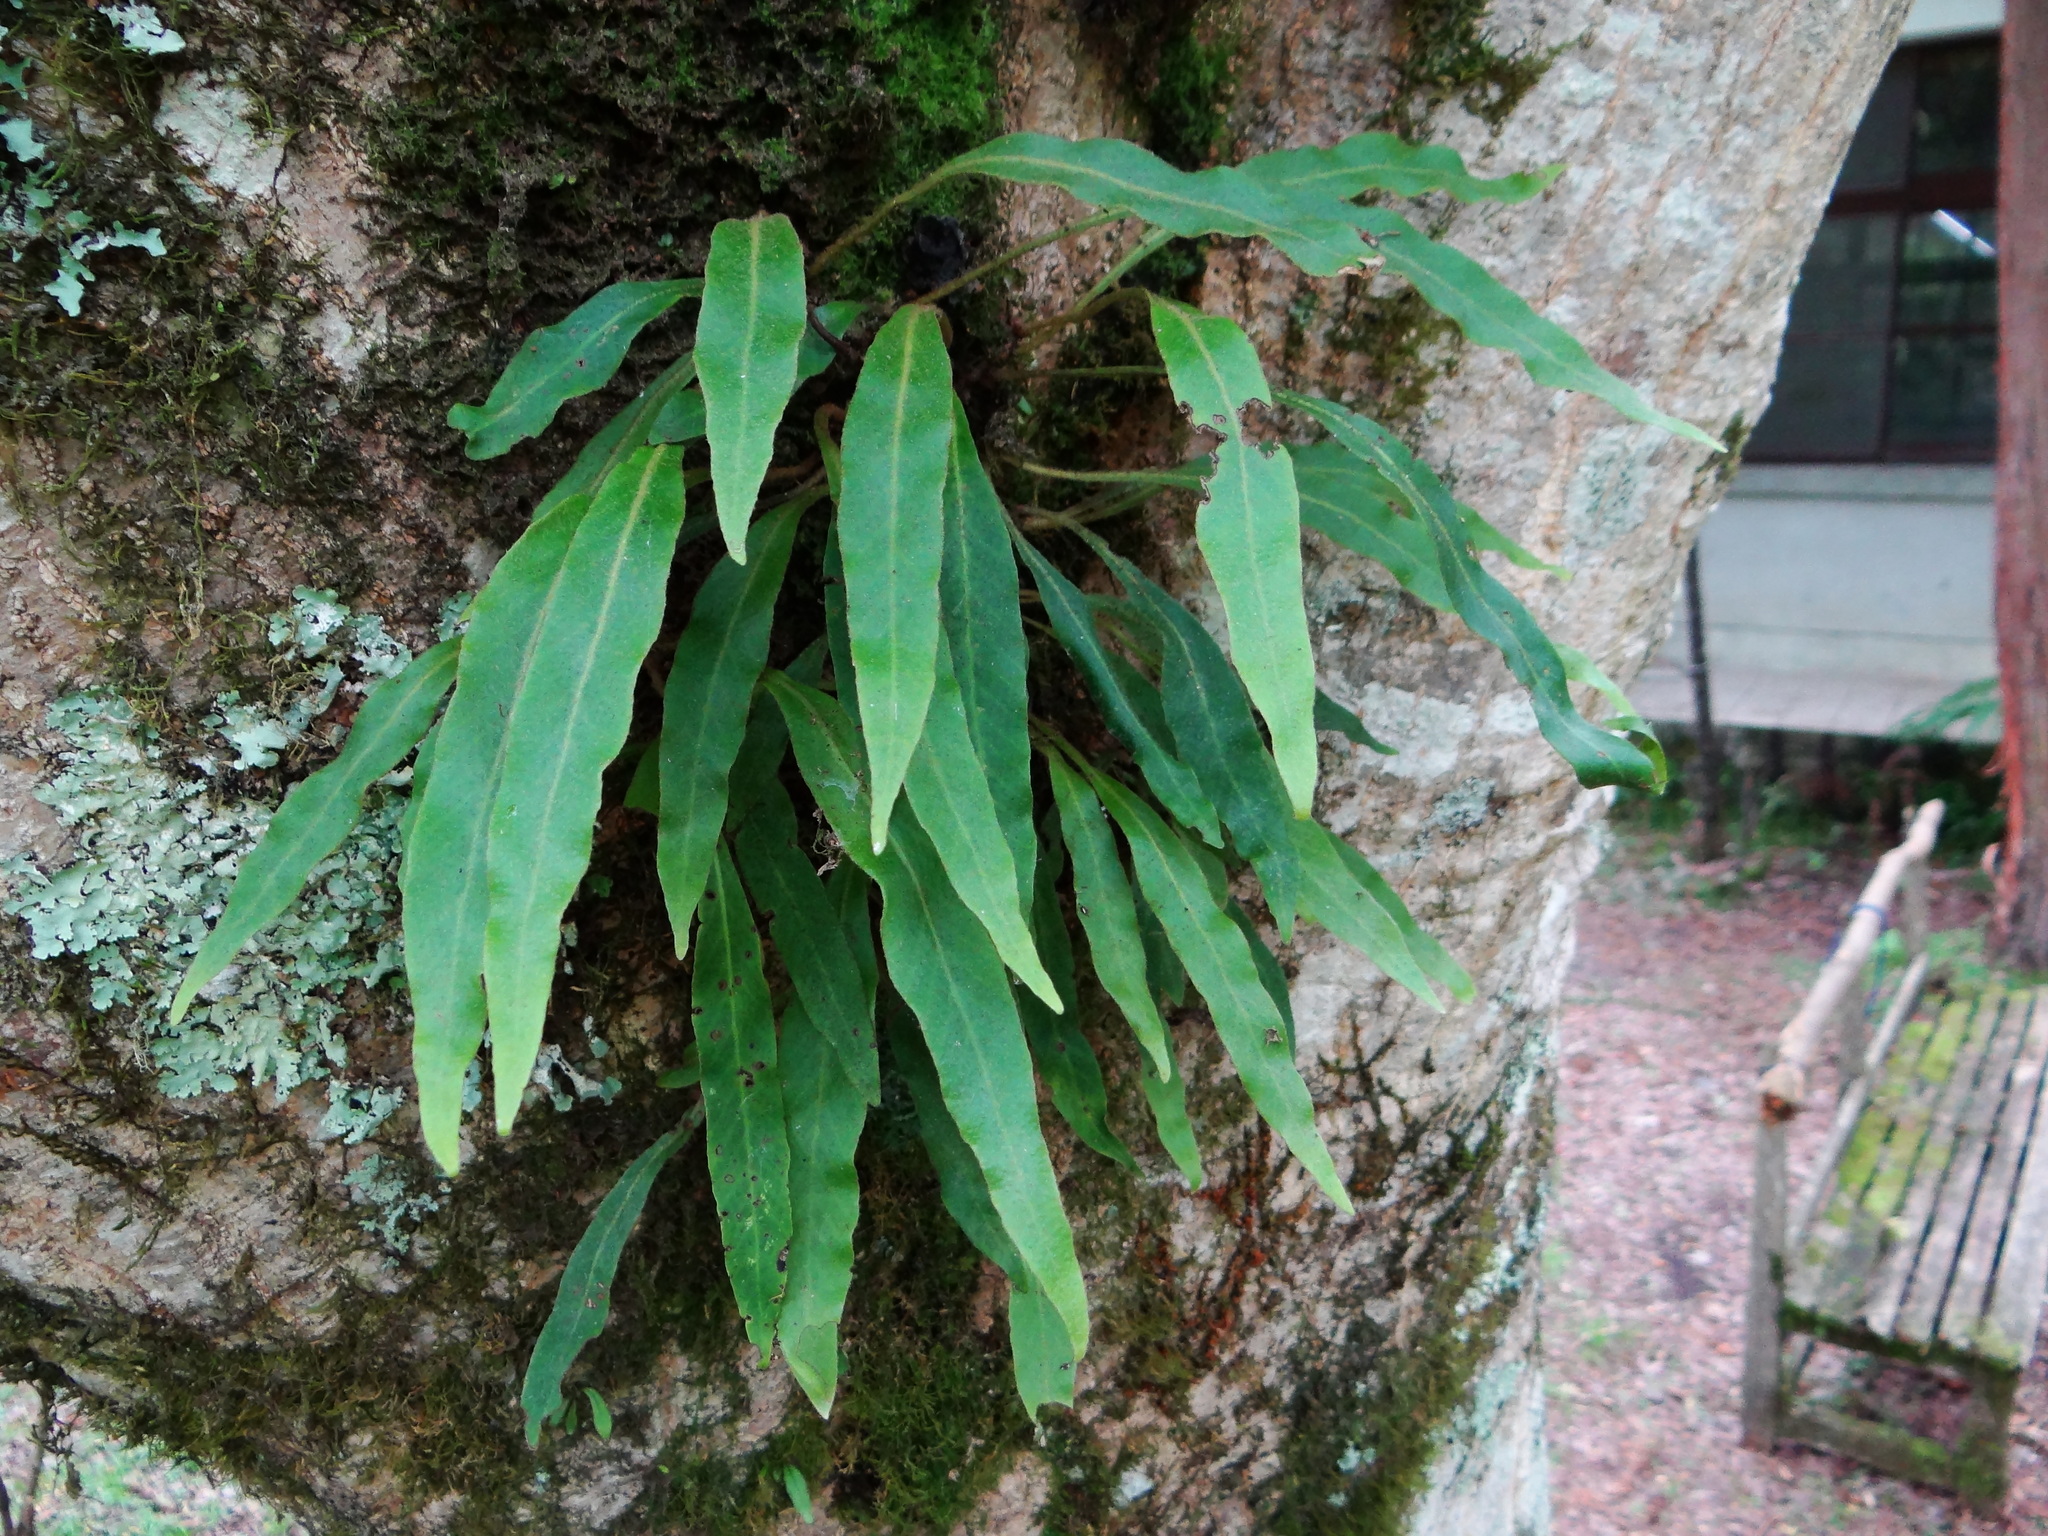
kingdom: Plantae
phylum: Tracheophyta
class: Polypodiopsida
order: Polypodiales
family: Polypodiaceae
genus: Pyrrosia
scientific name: Pyrrosia porosa
